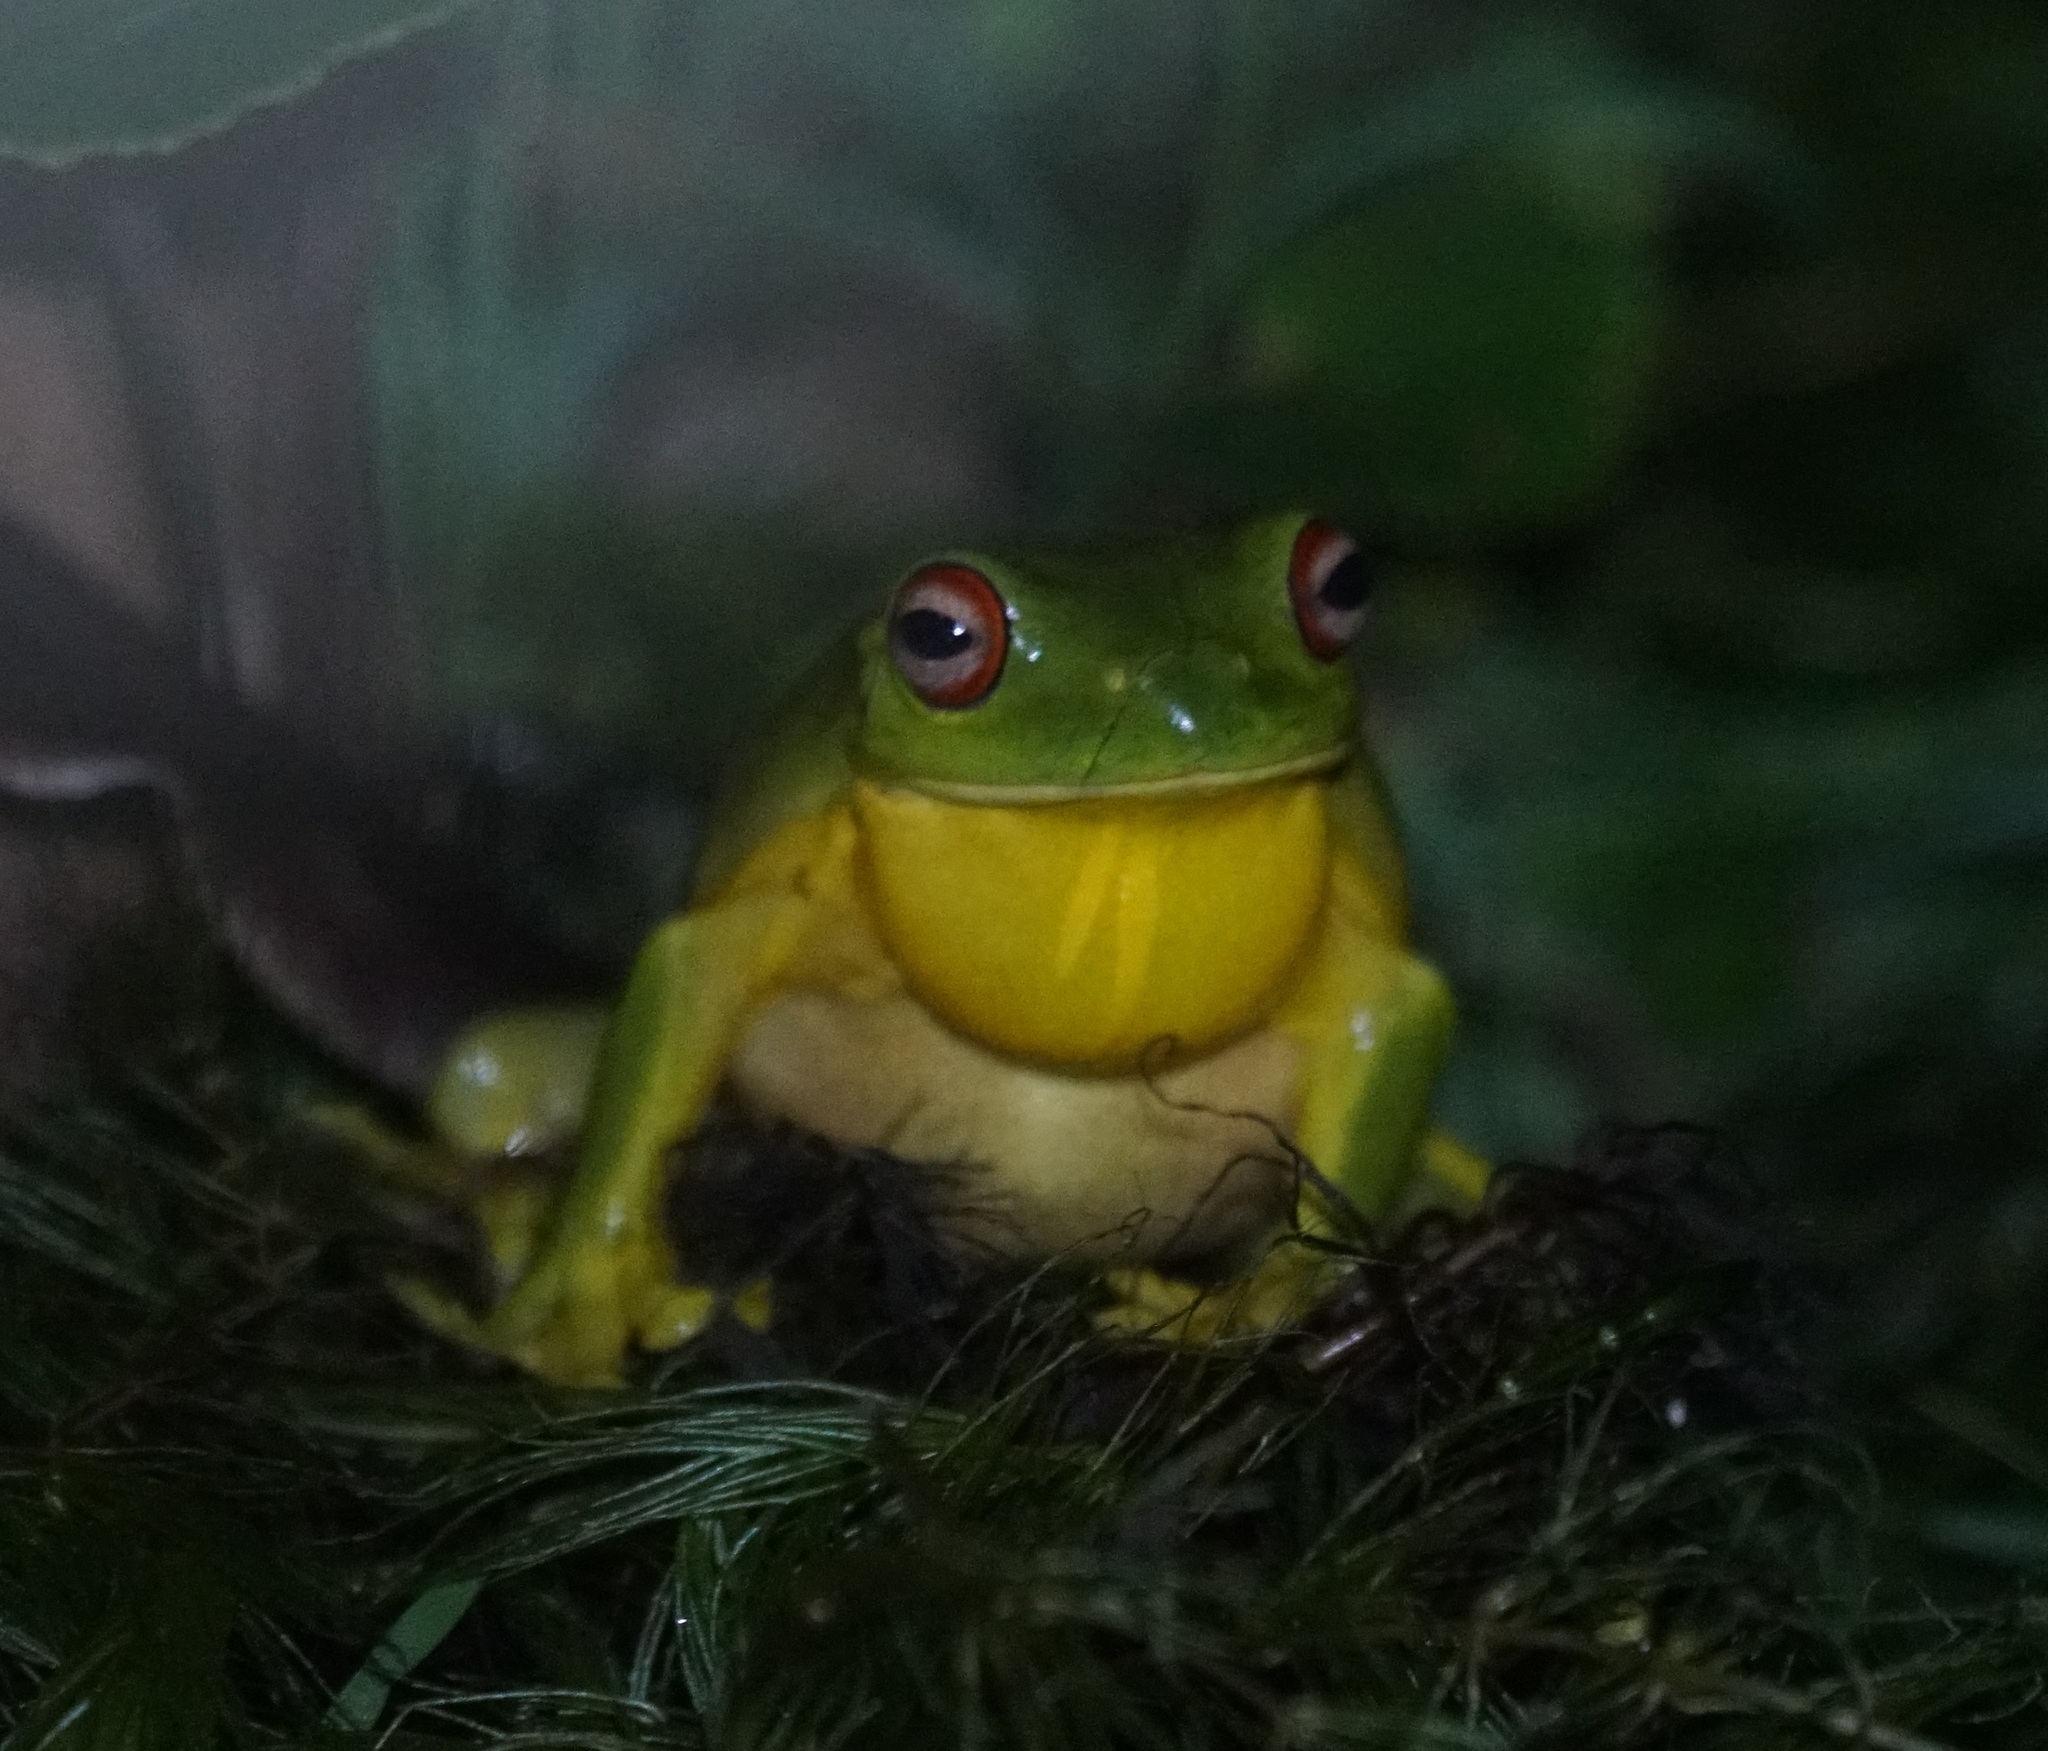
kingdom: Animalia
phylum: Chordata
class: Amphibia
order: Anura
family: Pelodryadidae
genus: Ranoidea
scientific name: Ranoidea chloris
